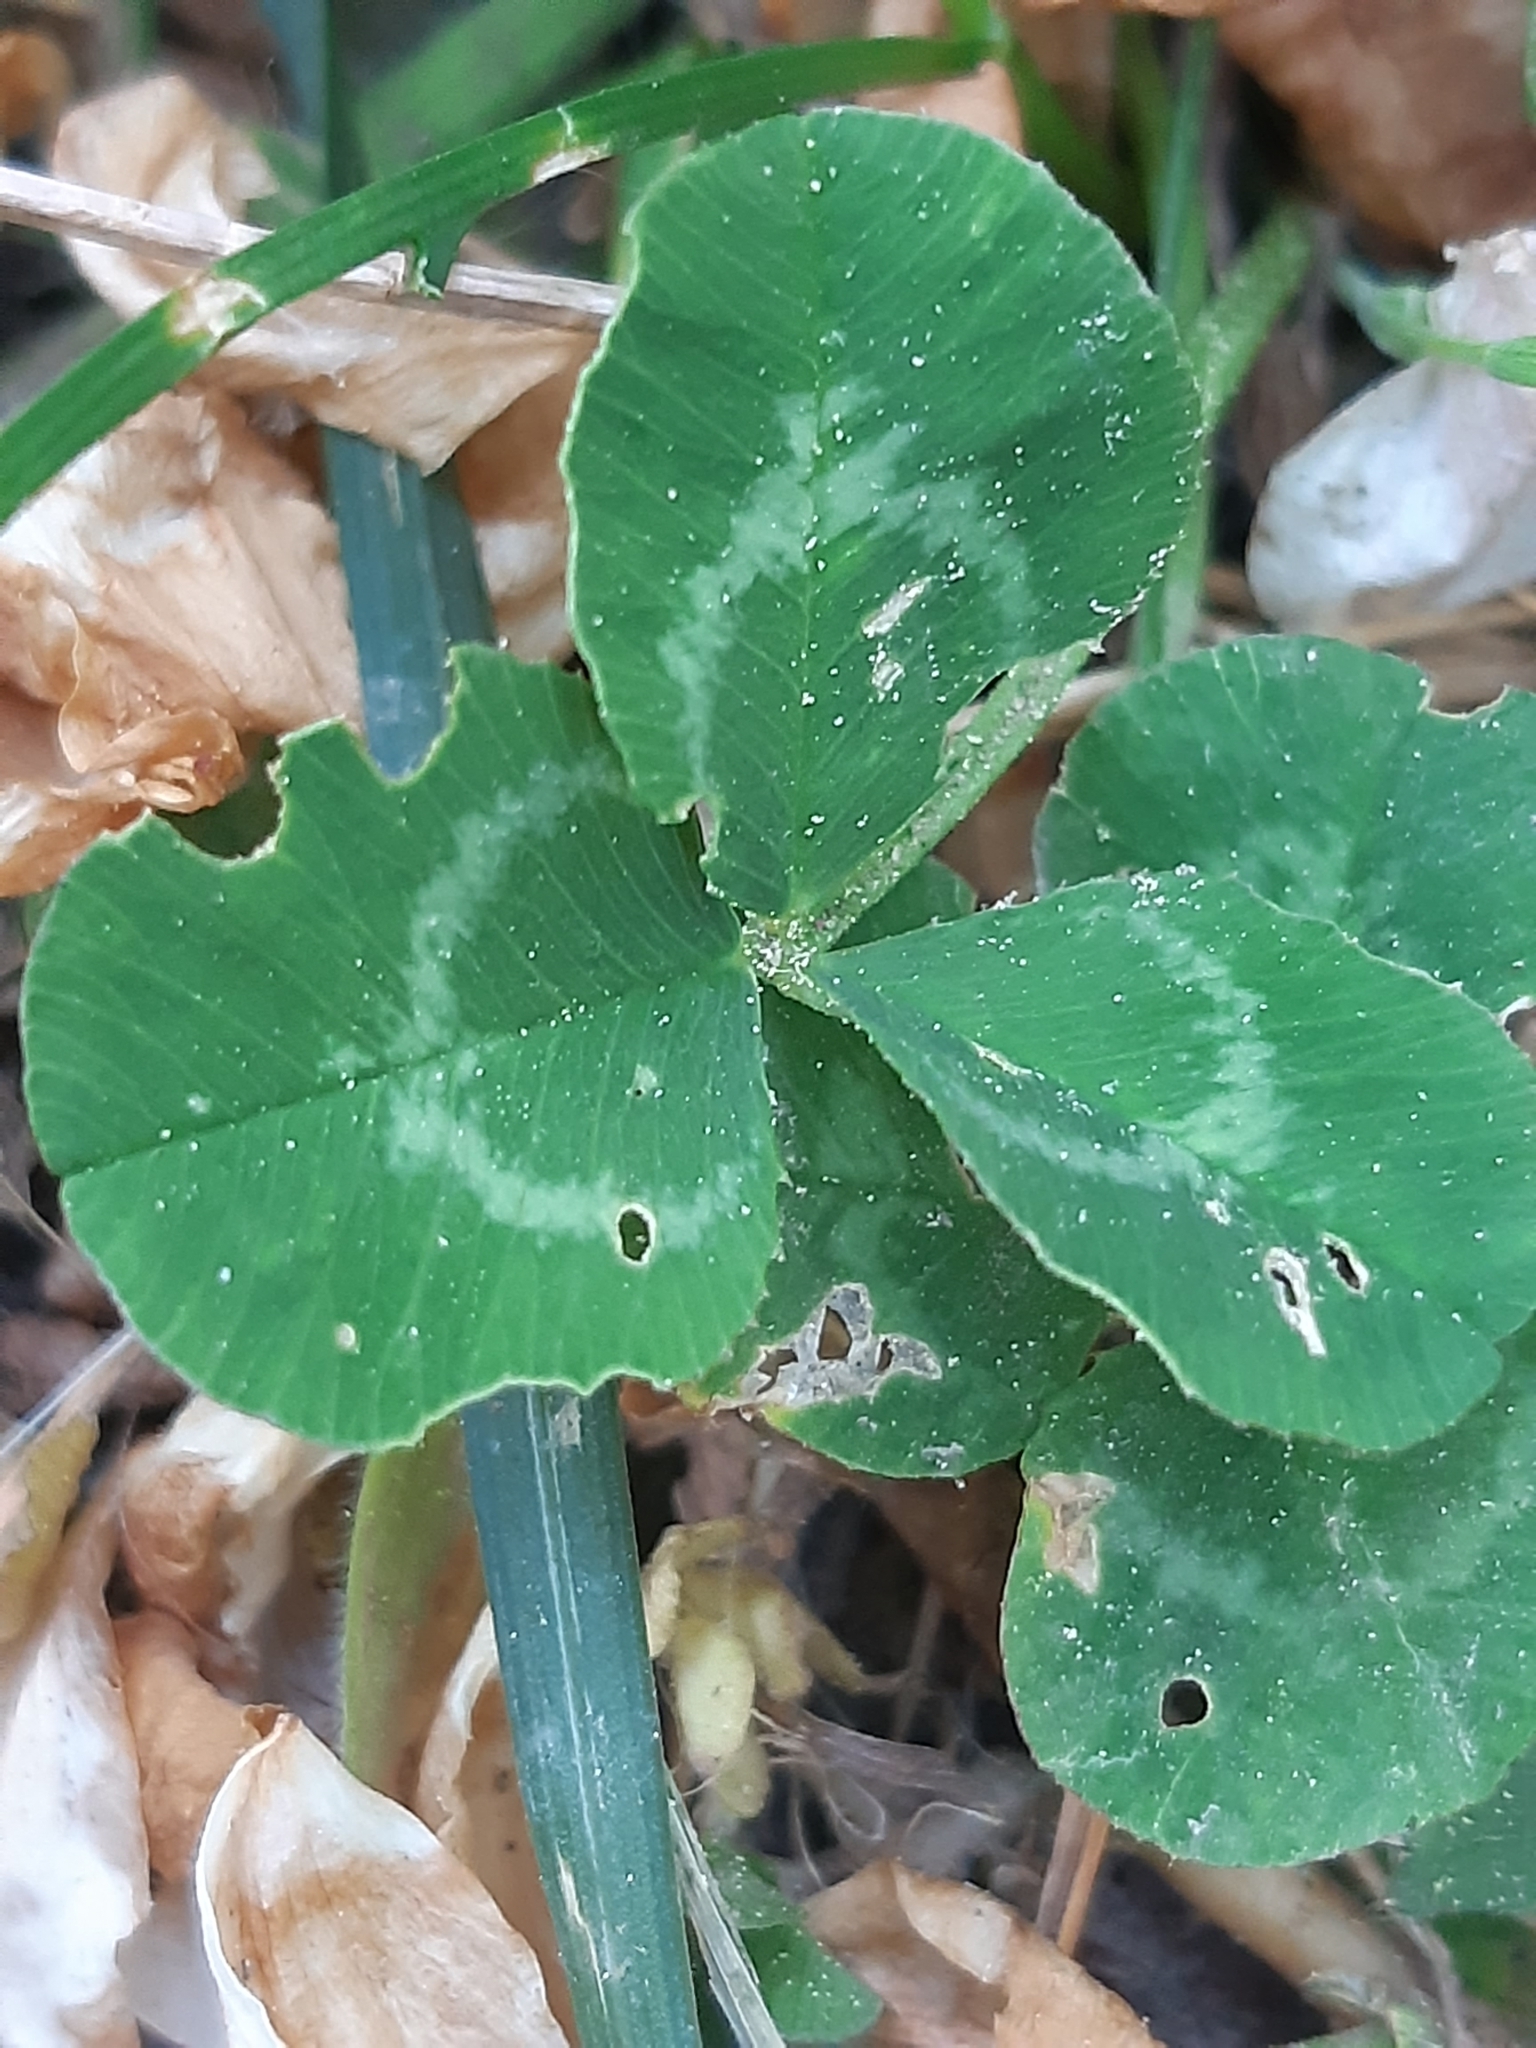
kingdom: Plantae
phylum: Tracheophyta
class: Magnoliopsida
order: Fabales
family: Fabaceae
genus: Trifolium
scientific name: Trifolium repens
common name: White clover
